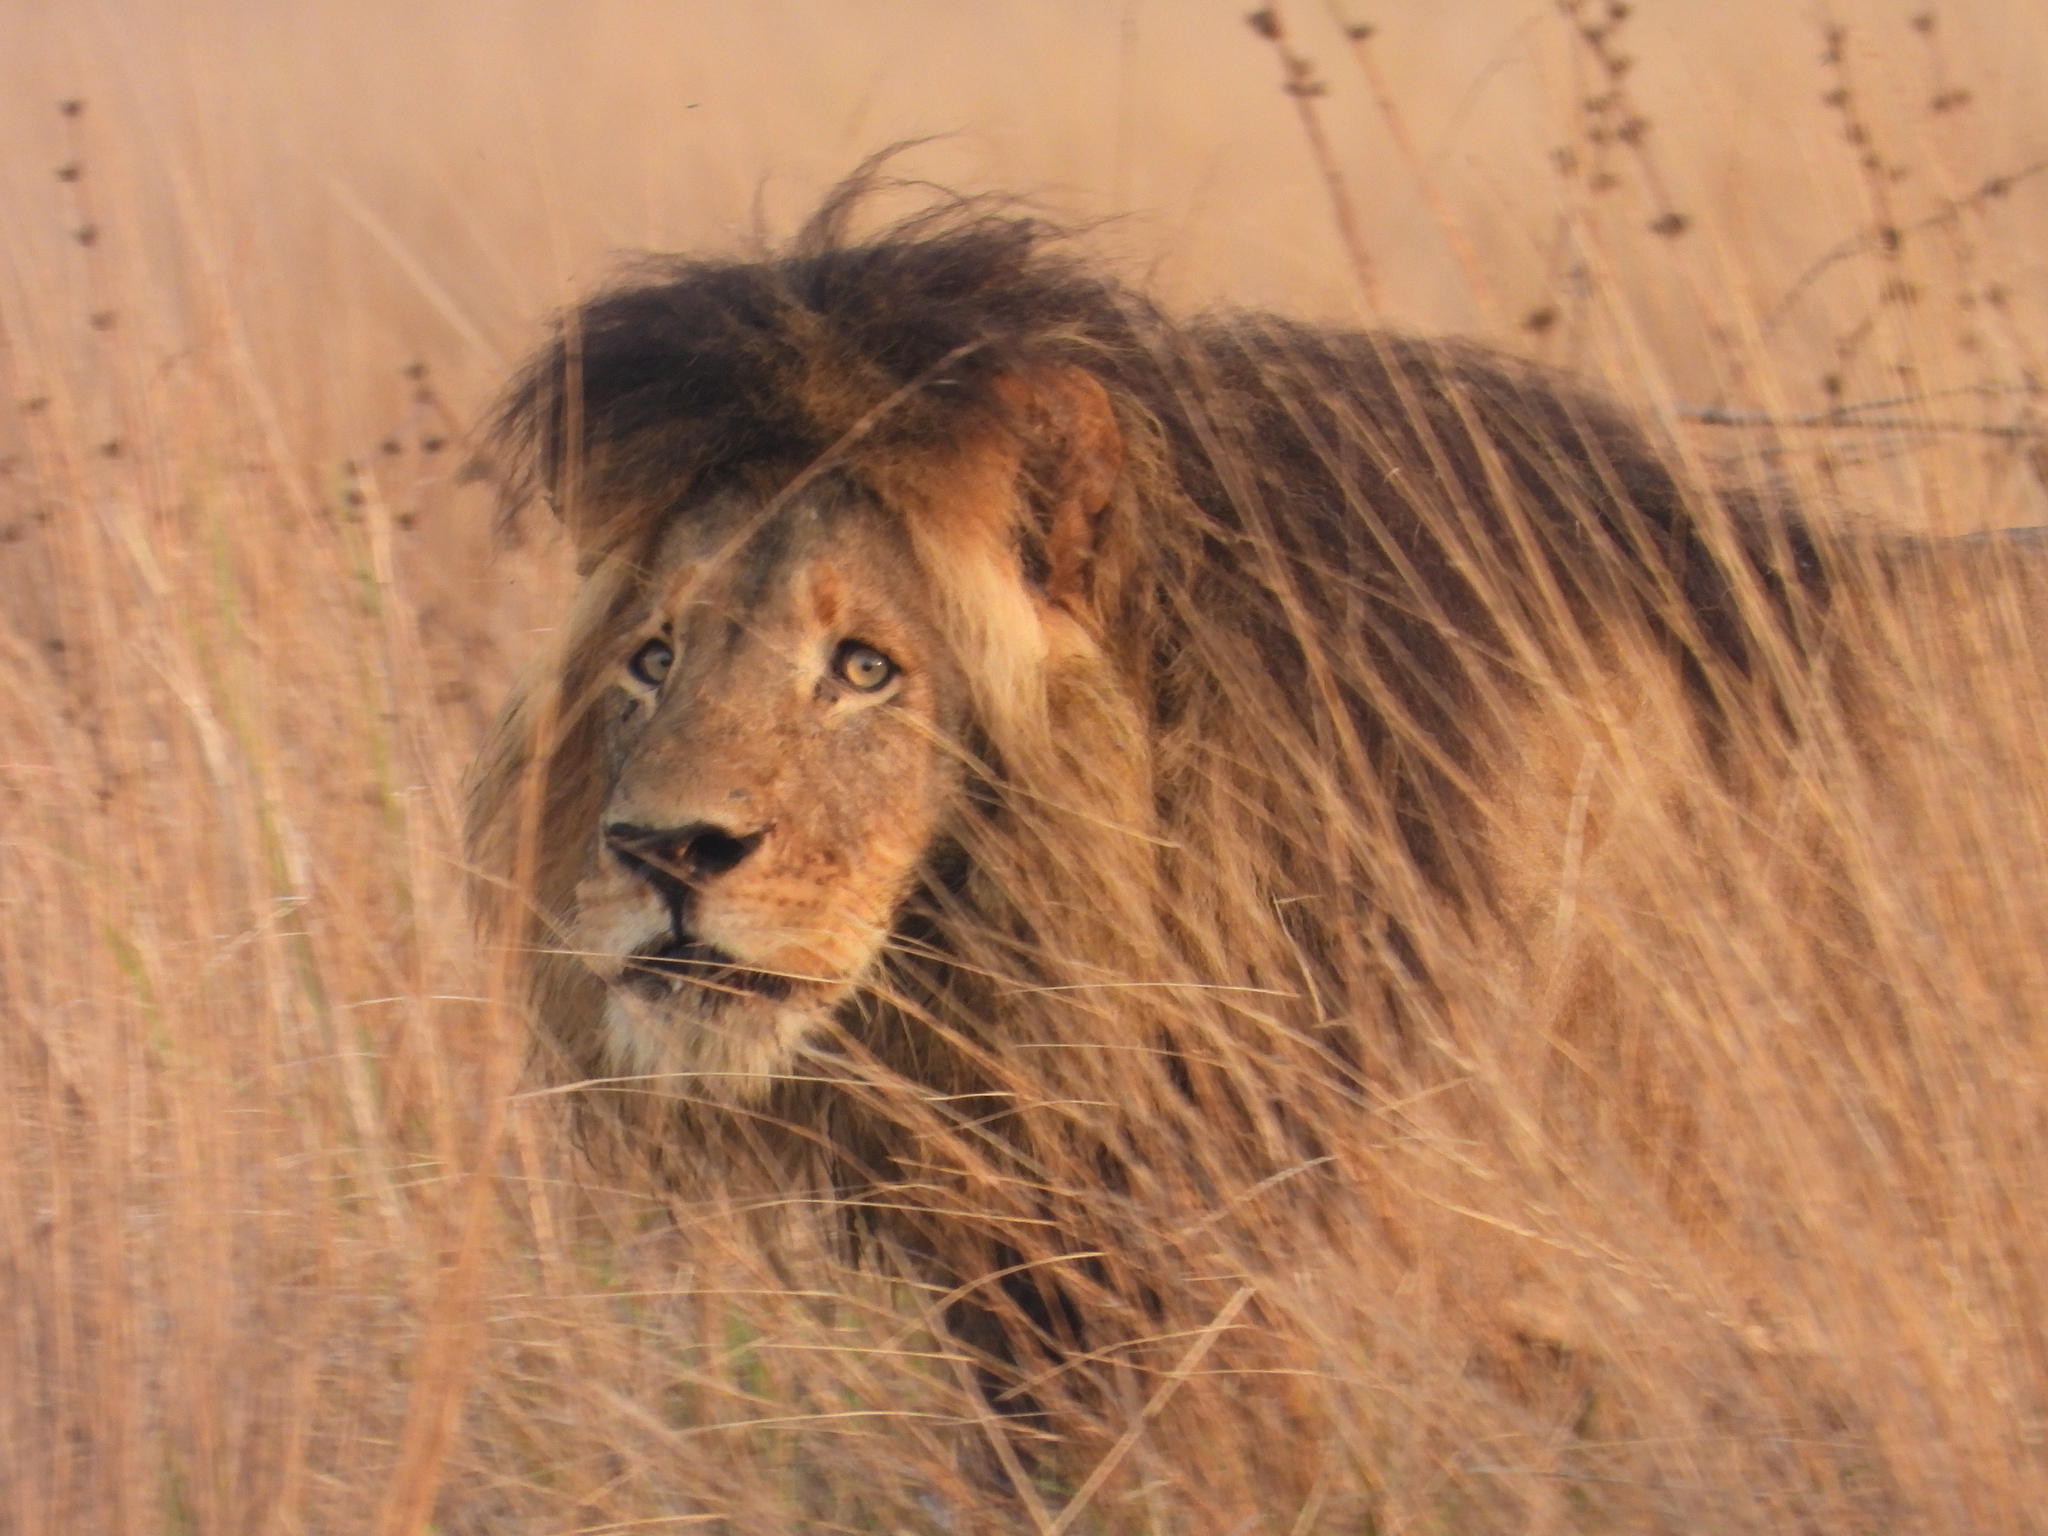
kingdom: Animalia
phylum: Chordata
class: Mammalia
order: Carnivora
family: Felidae
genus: Panthera
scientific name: Panthera leo
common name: Lion
